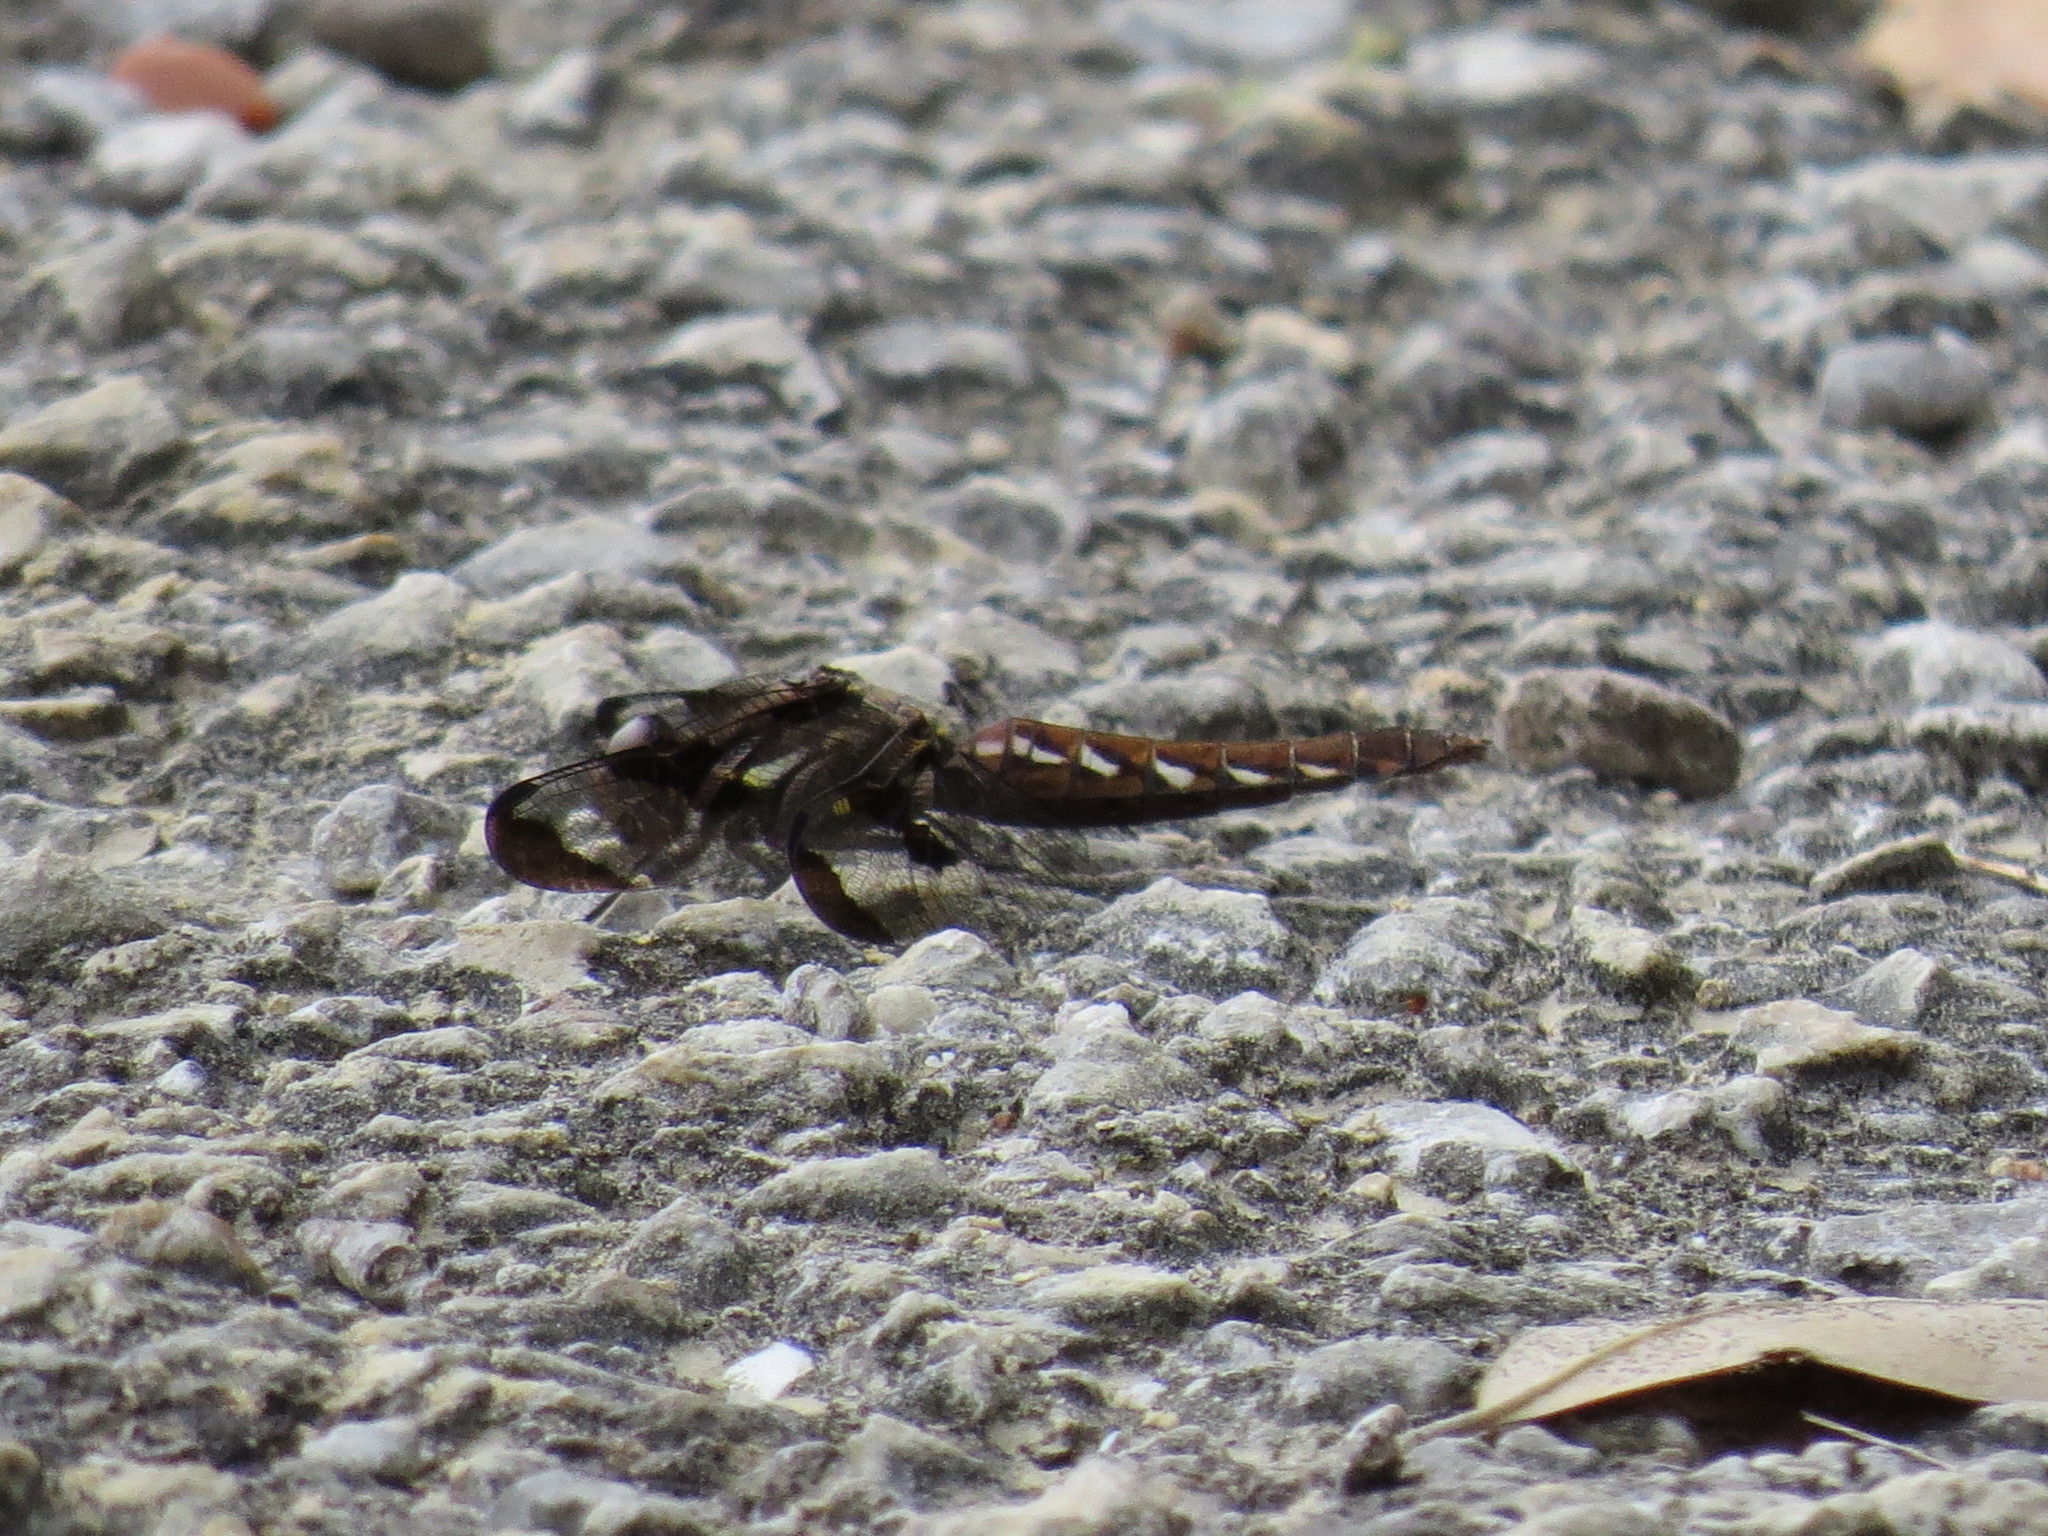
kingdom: Animalia
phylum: Arthropoda
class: Insecta
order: Odonata
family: Libellulidae
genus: Plathemis
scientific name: Plathemis lydia
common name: Common whitetail
